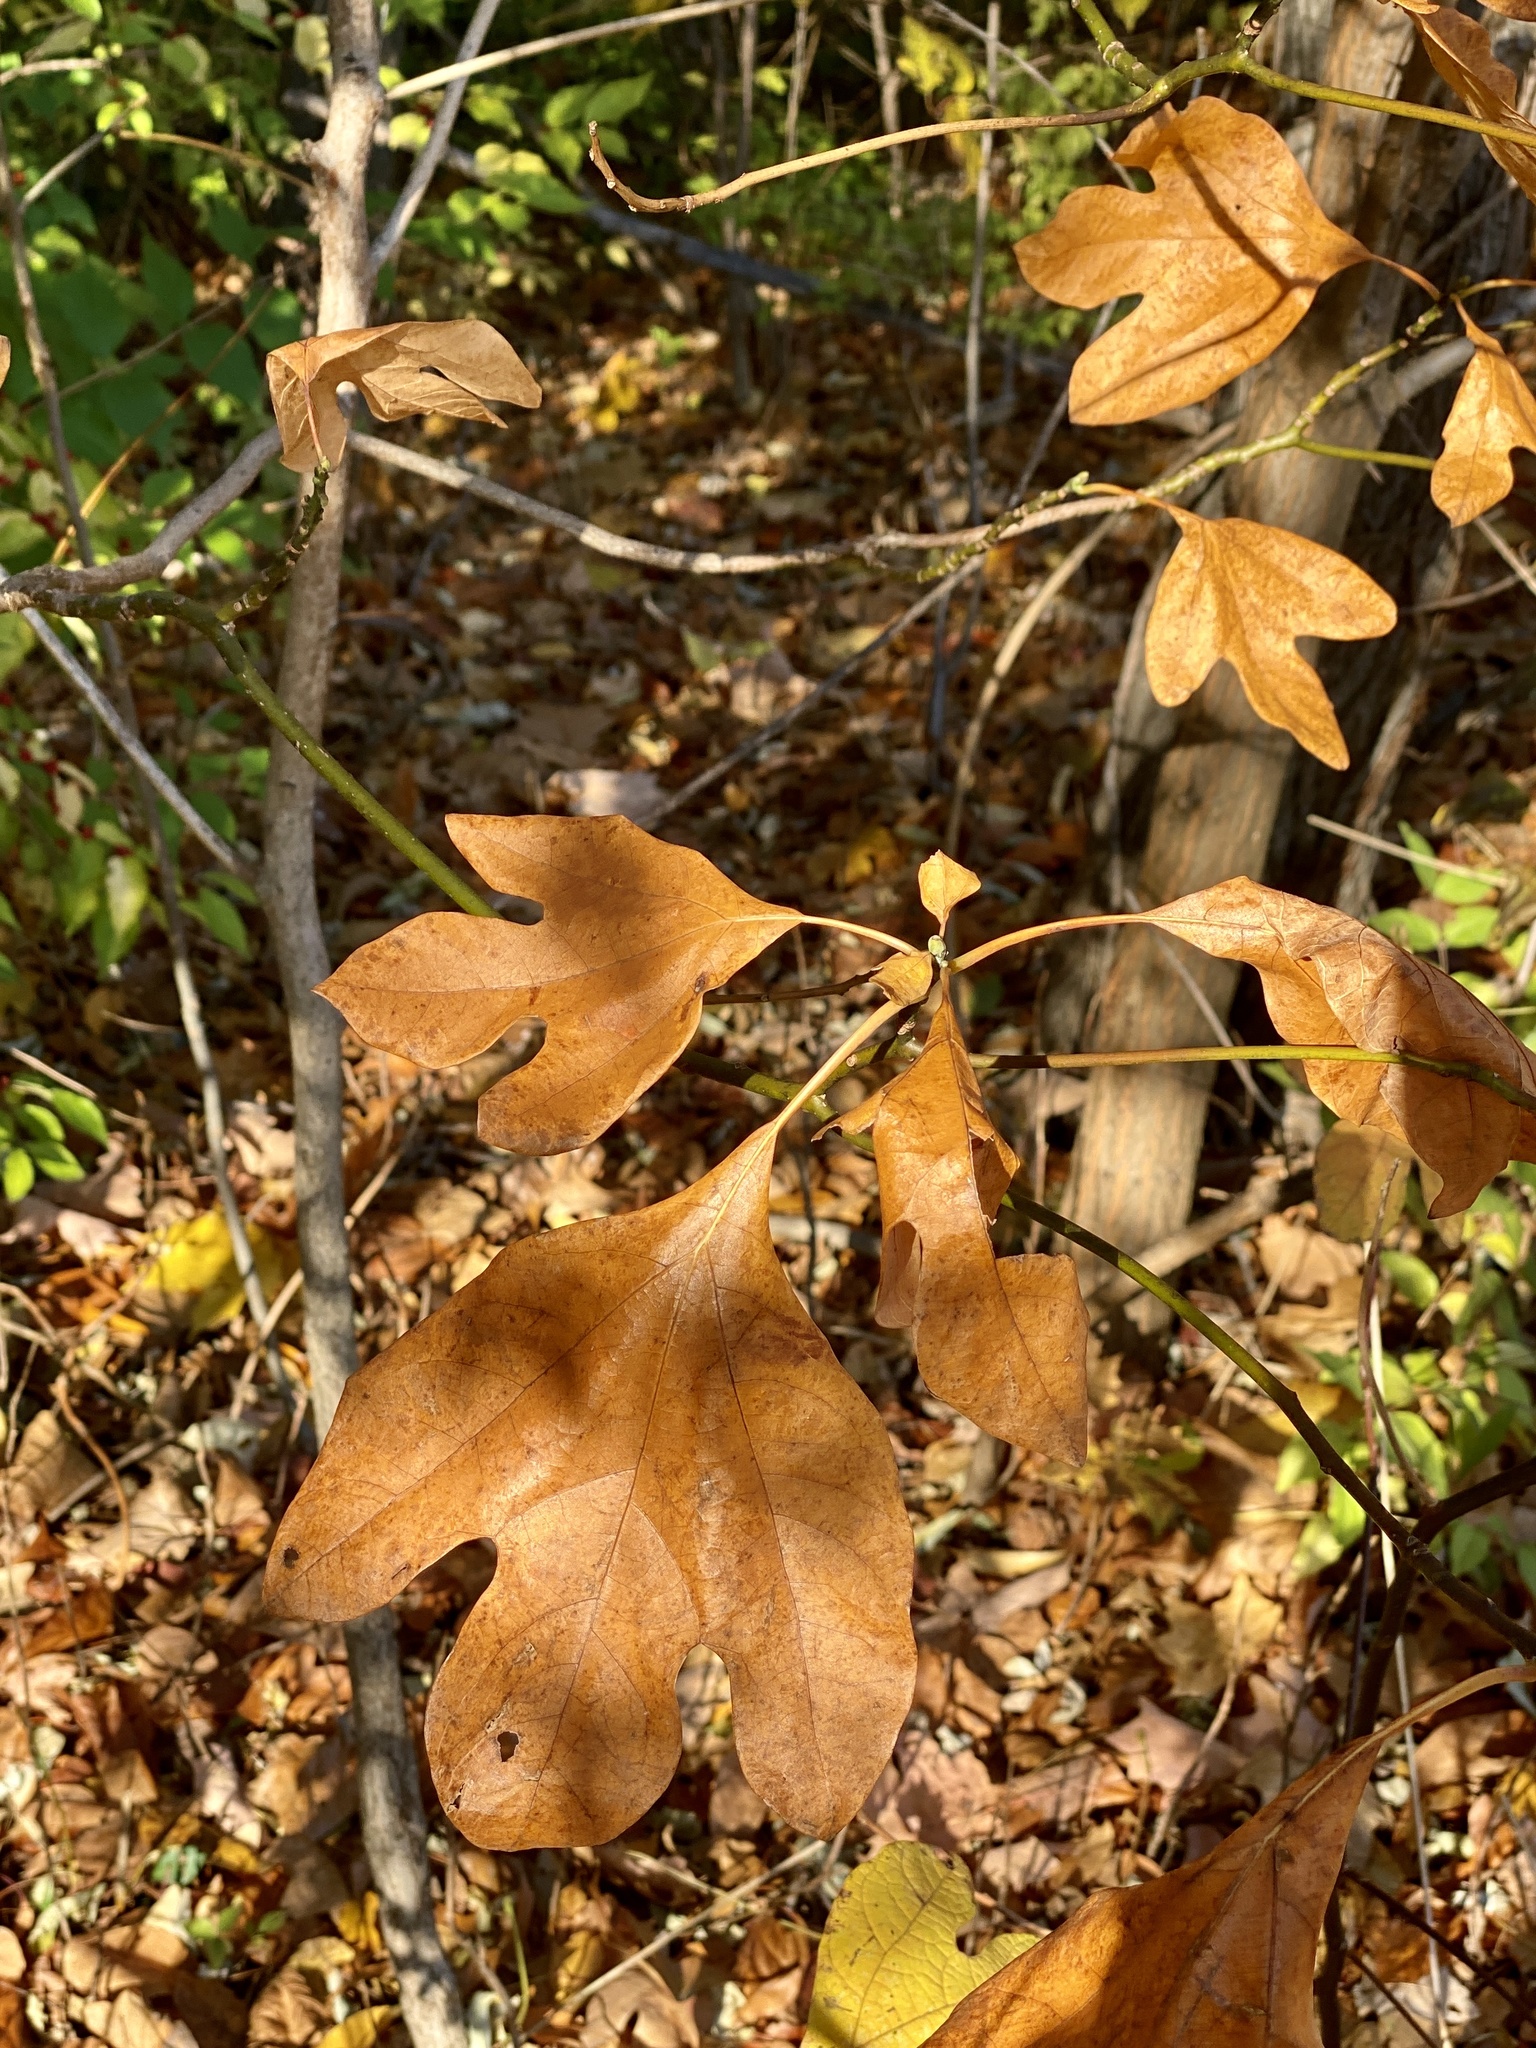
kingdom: Plantae
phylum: Tracheophyta
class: Magnoliopsida
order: Laurales
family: Lauraceae
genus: Sassafras
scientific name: Sassafras albidum
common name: Sassafras
